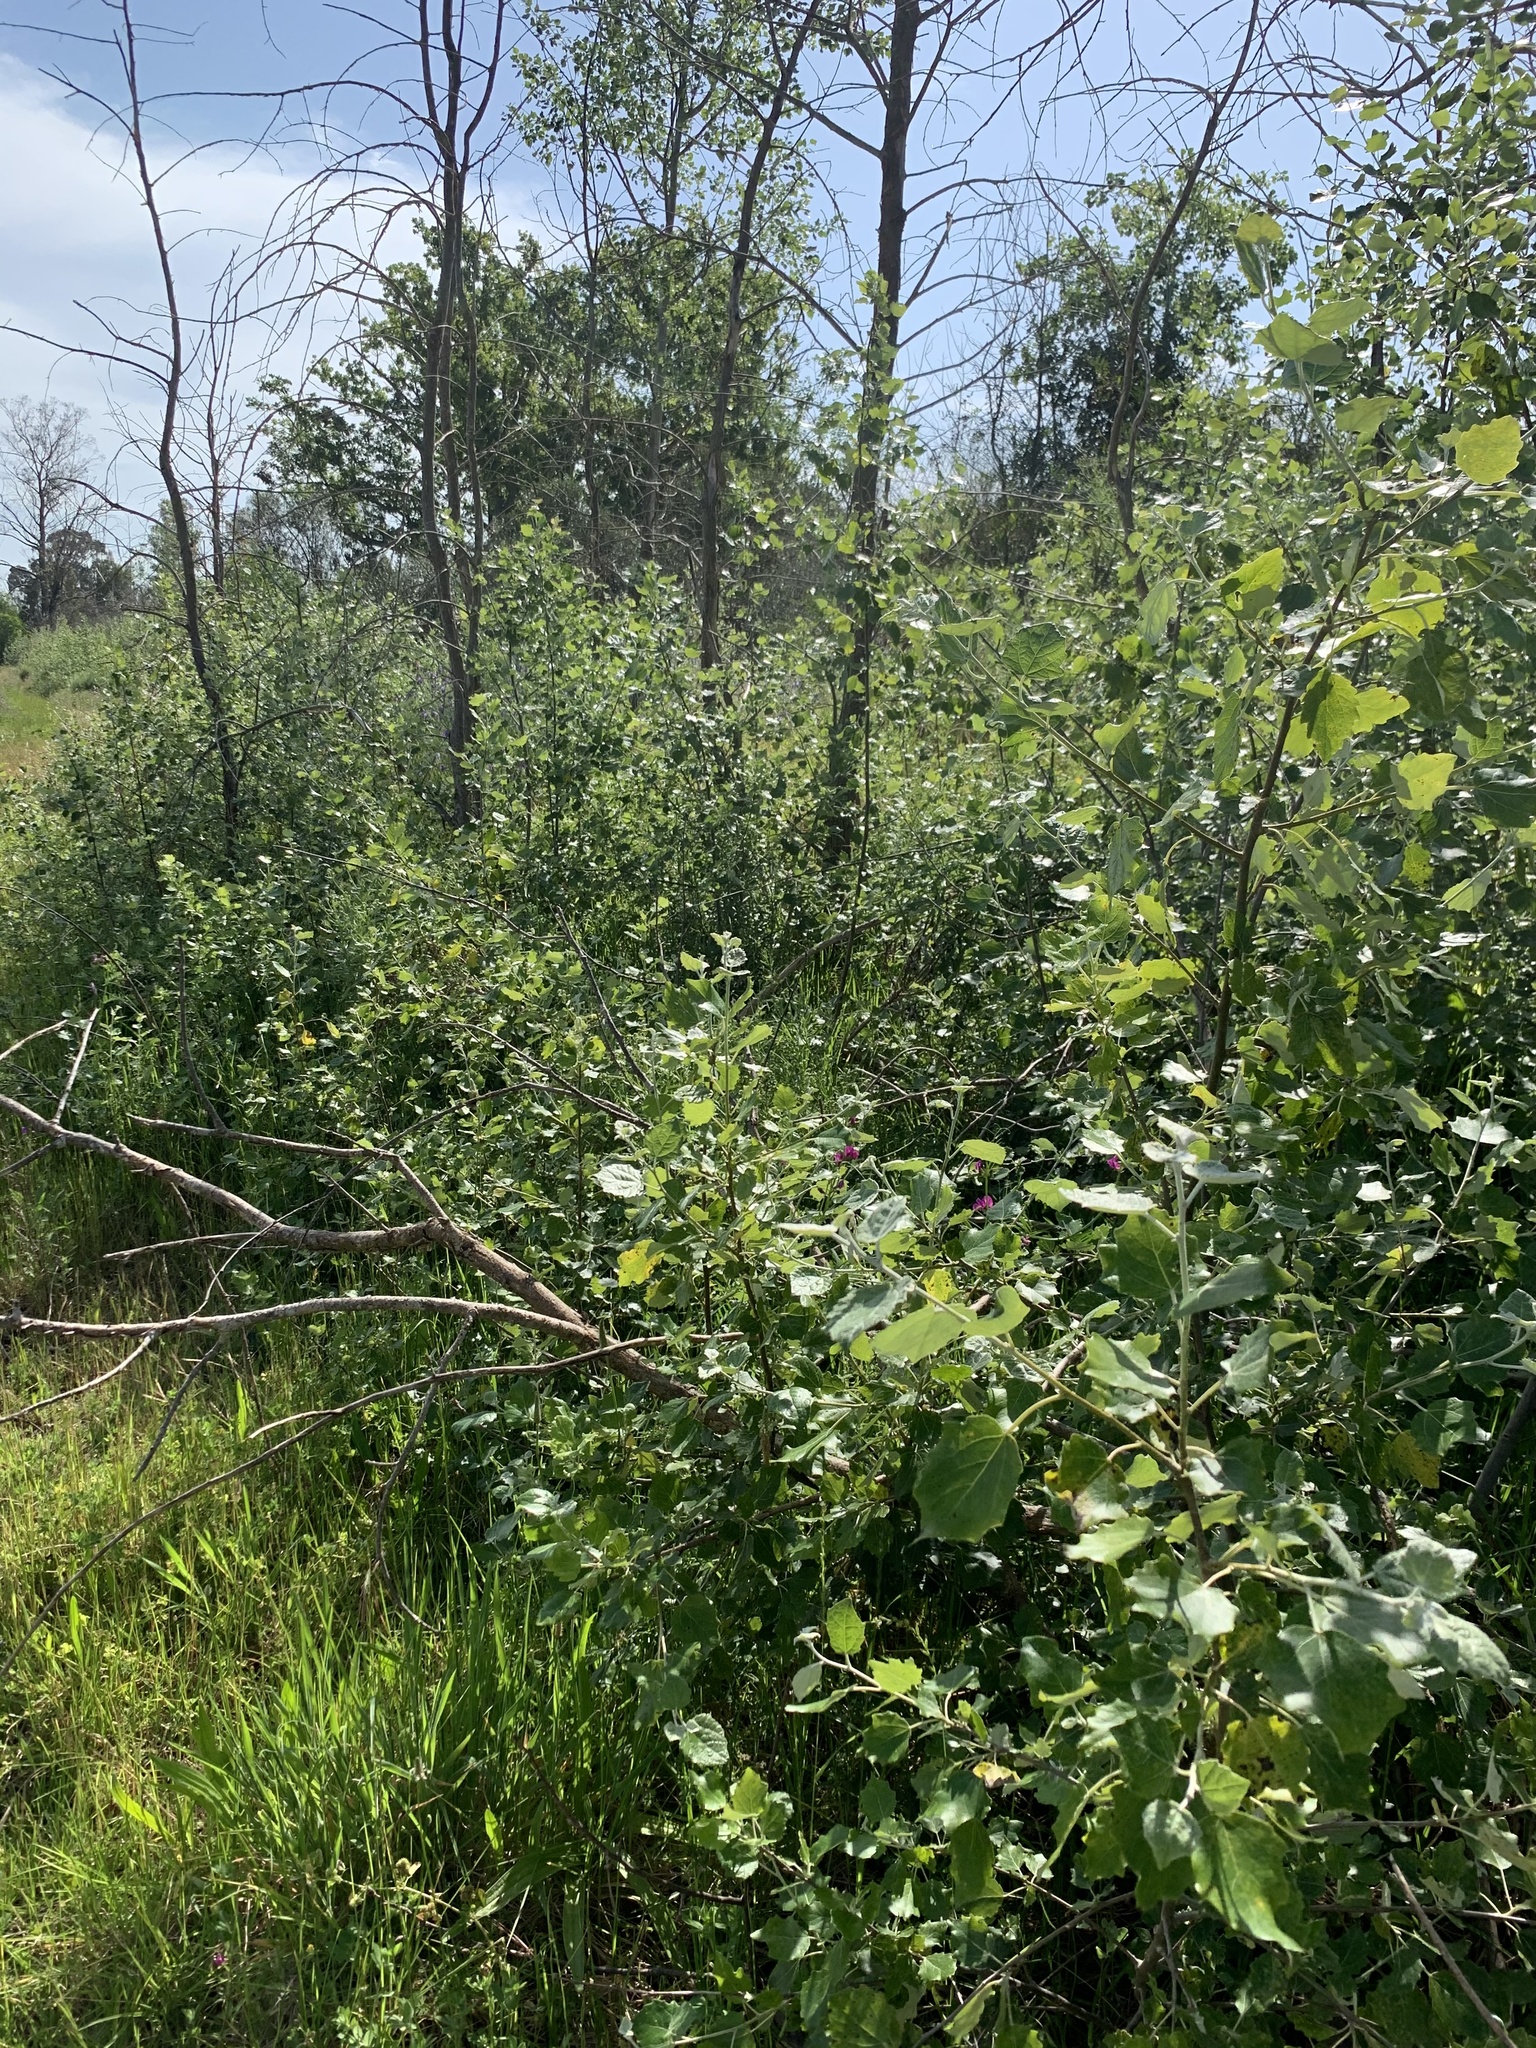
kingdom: Plantae
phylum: Tracheophyta
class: Magnoliopsida
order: Malpighiales
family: Salicaceae
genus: Populus
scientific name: Populus canescens
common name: Gray poplar
